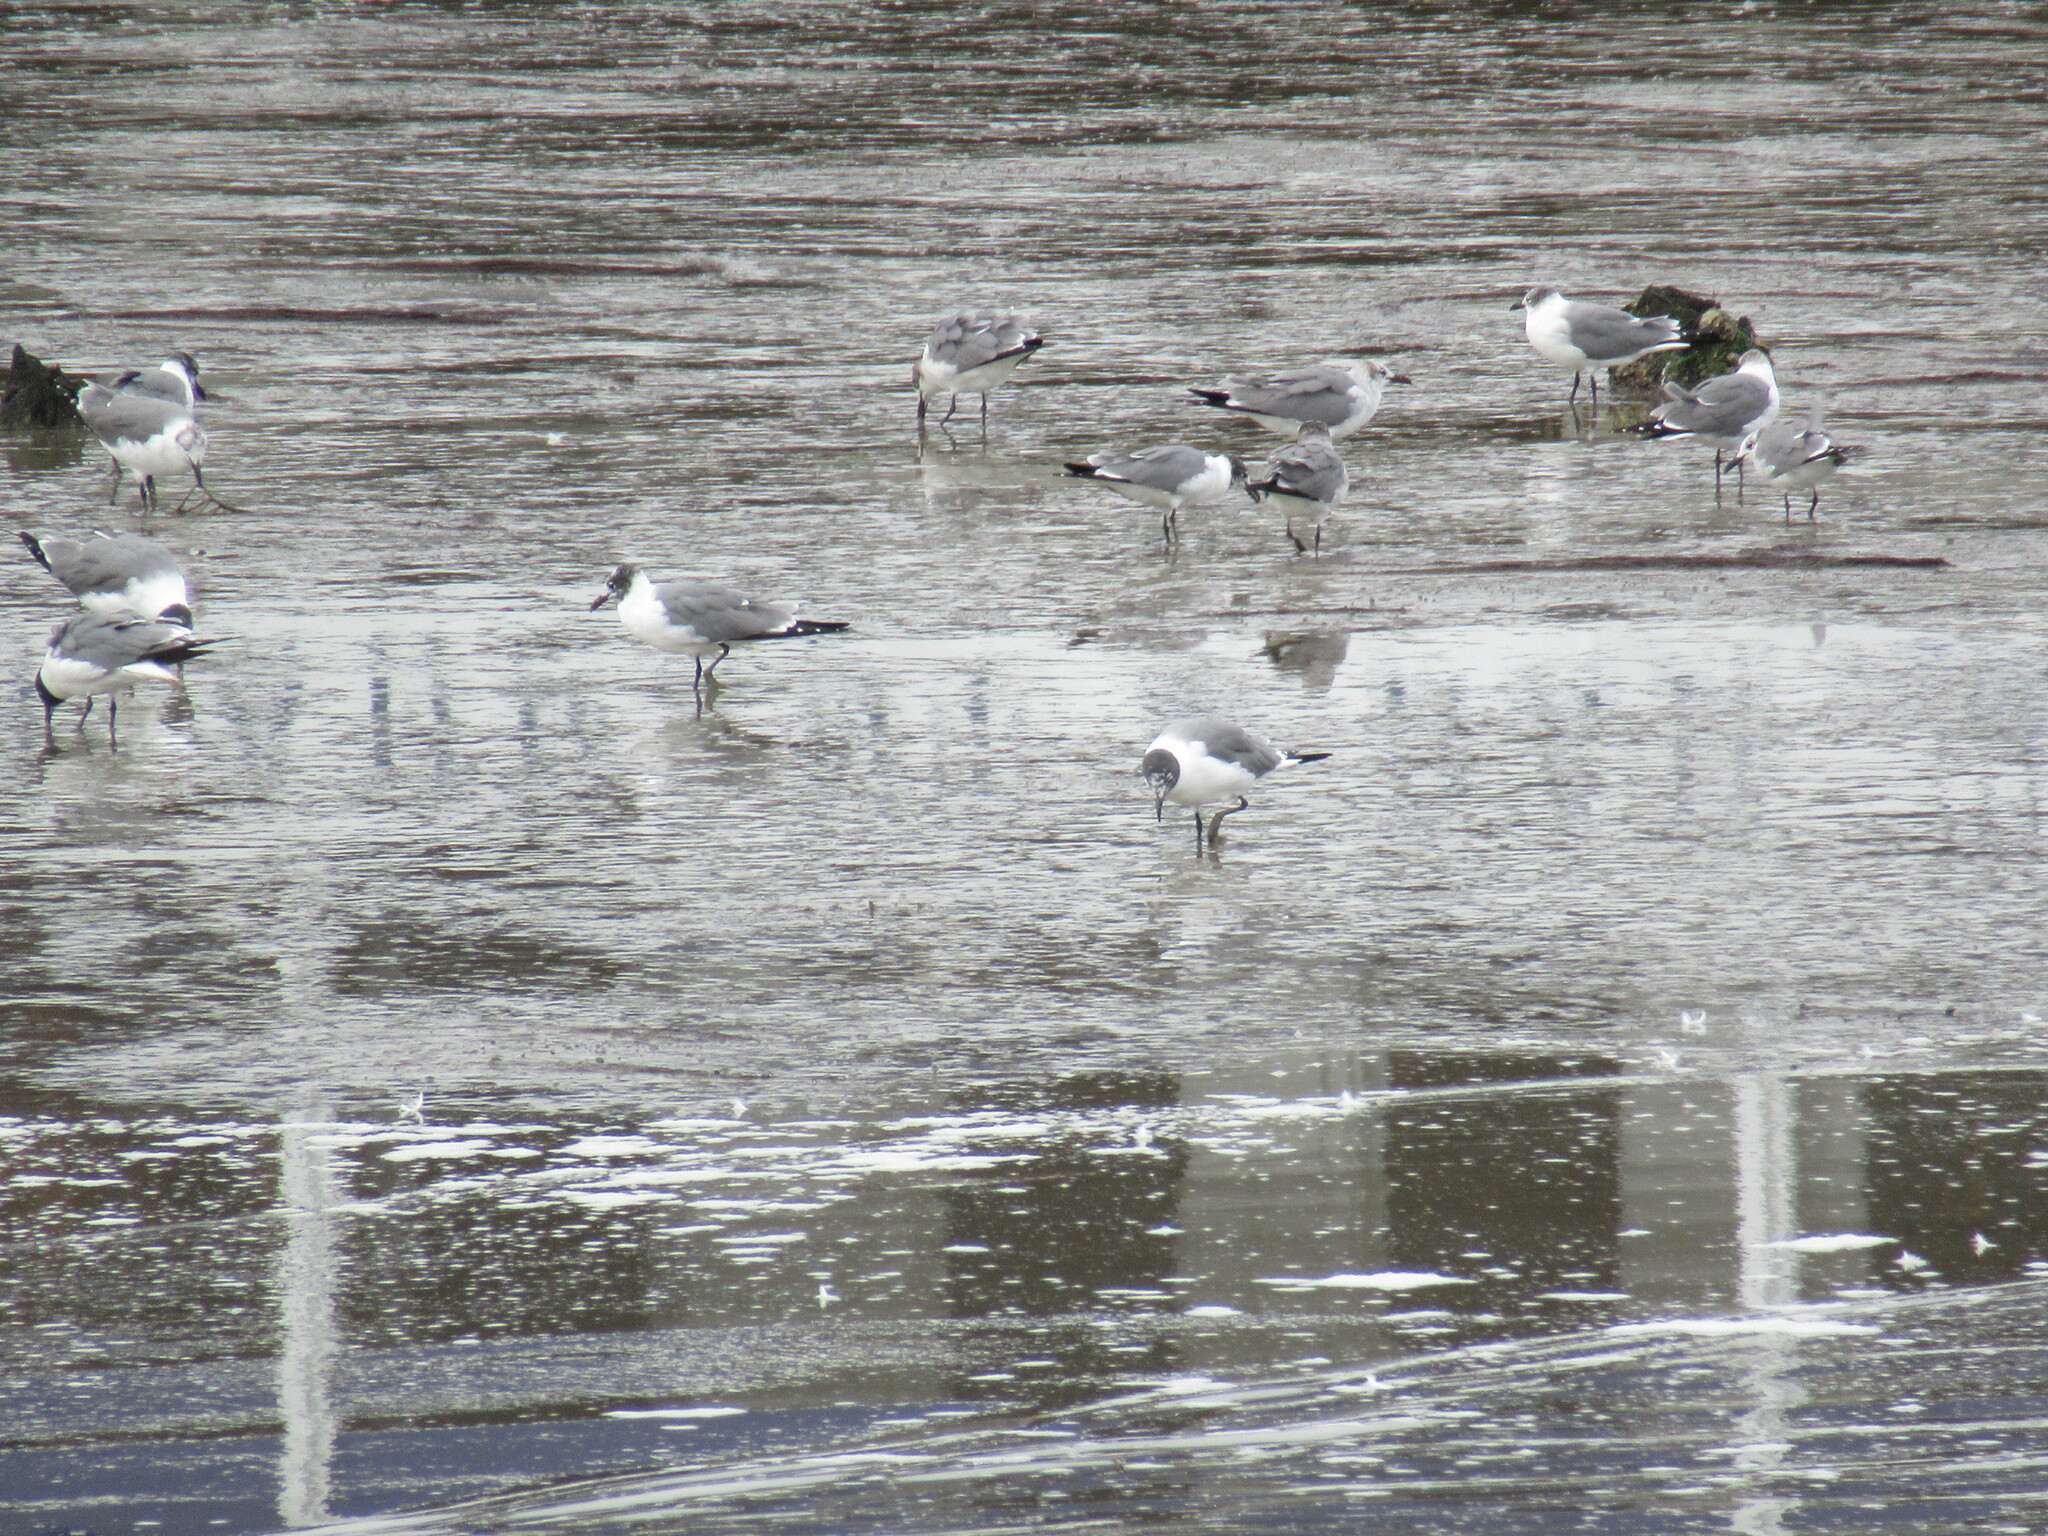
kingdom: Animalia
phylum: Chordata
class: Aves
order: Charadriiformes
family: Laridae
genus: Leucophaeus
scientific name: Leucophaeus atricilla
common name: Laughing gull
